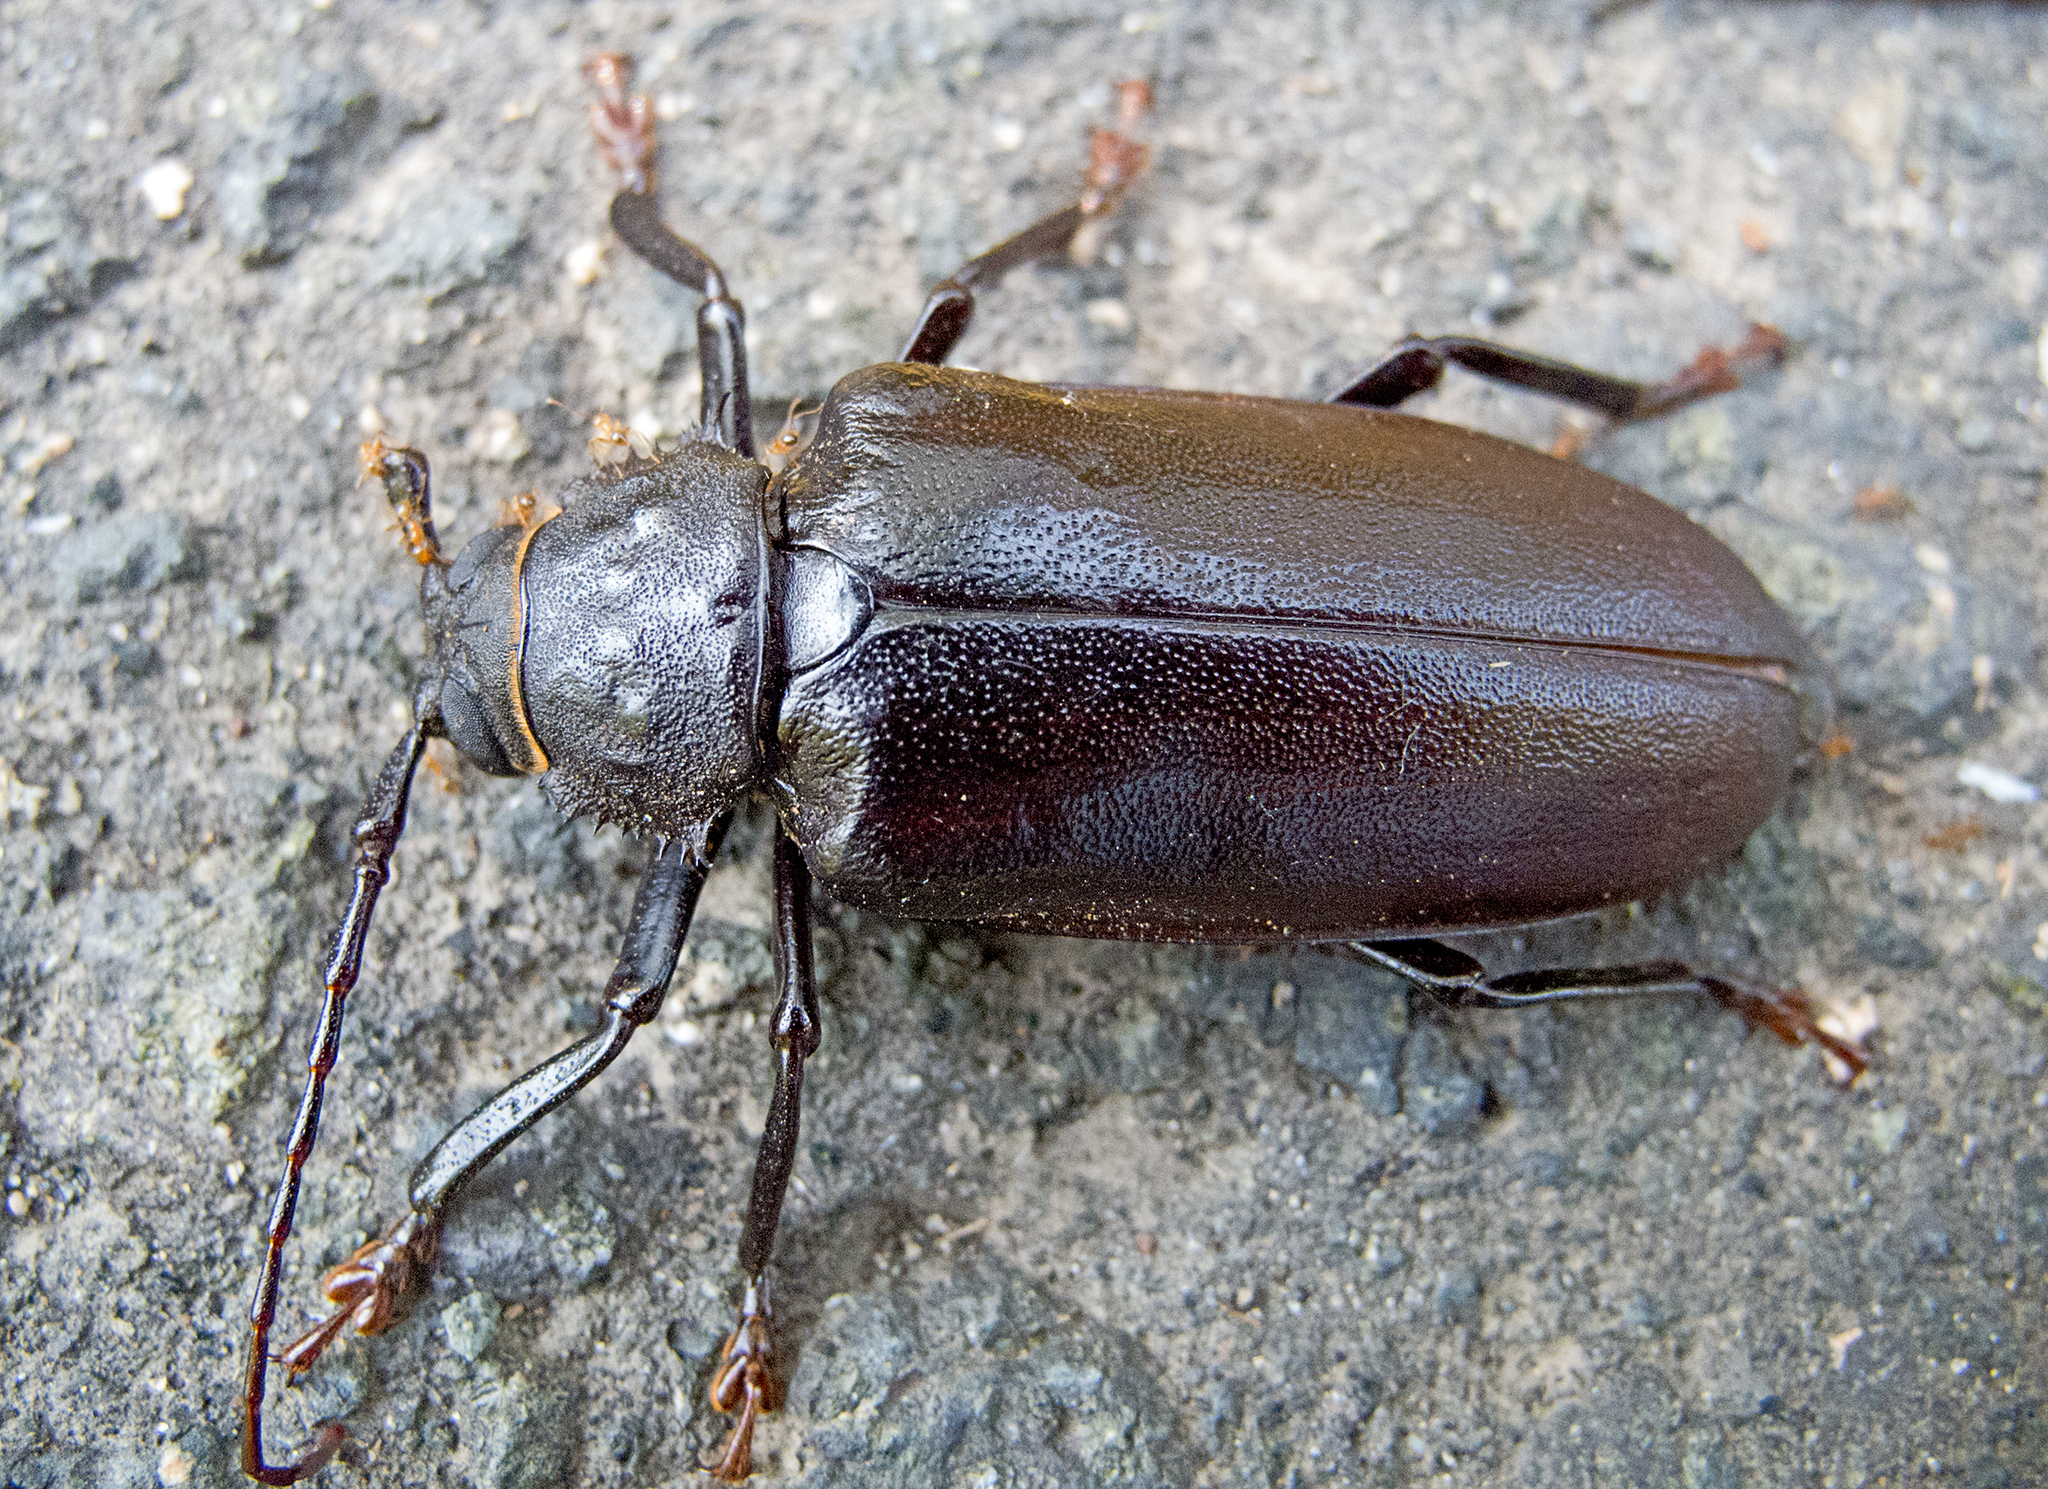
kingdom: Animalia
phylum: Arthropoda
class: Insecta
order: Coleoptera
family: Cerambycidae
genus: Rhaesus
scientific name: Rhaesus serraticollis
